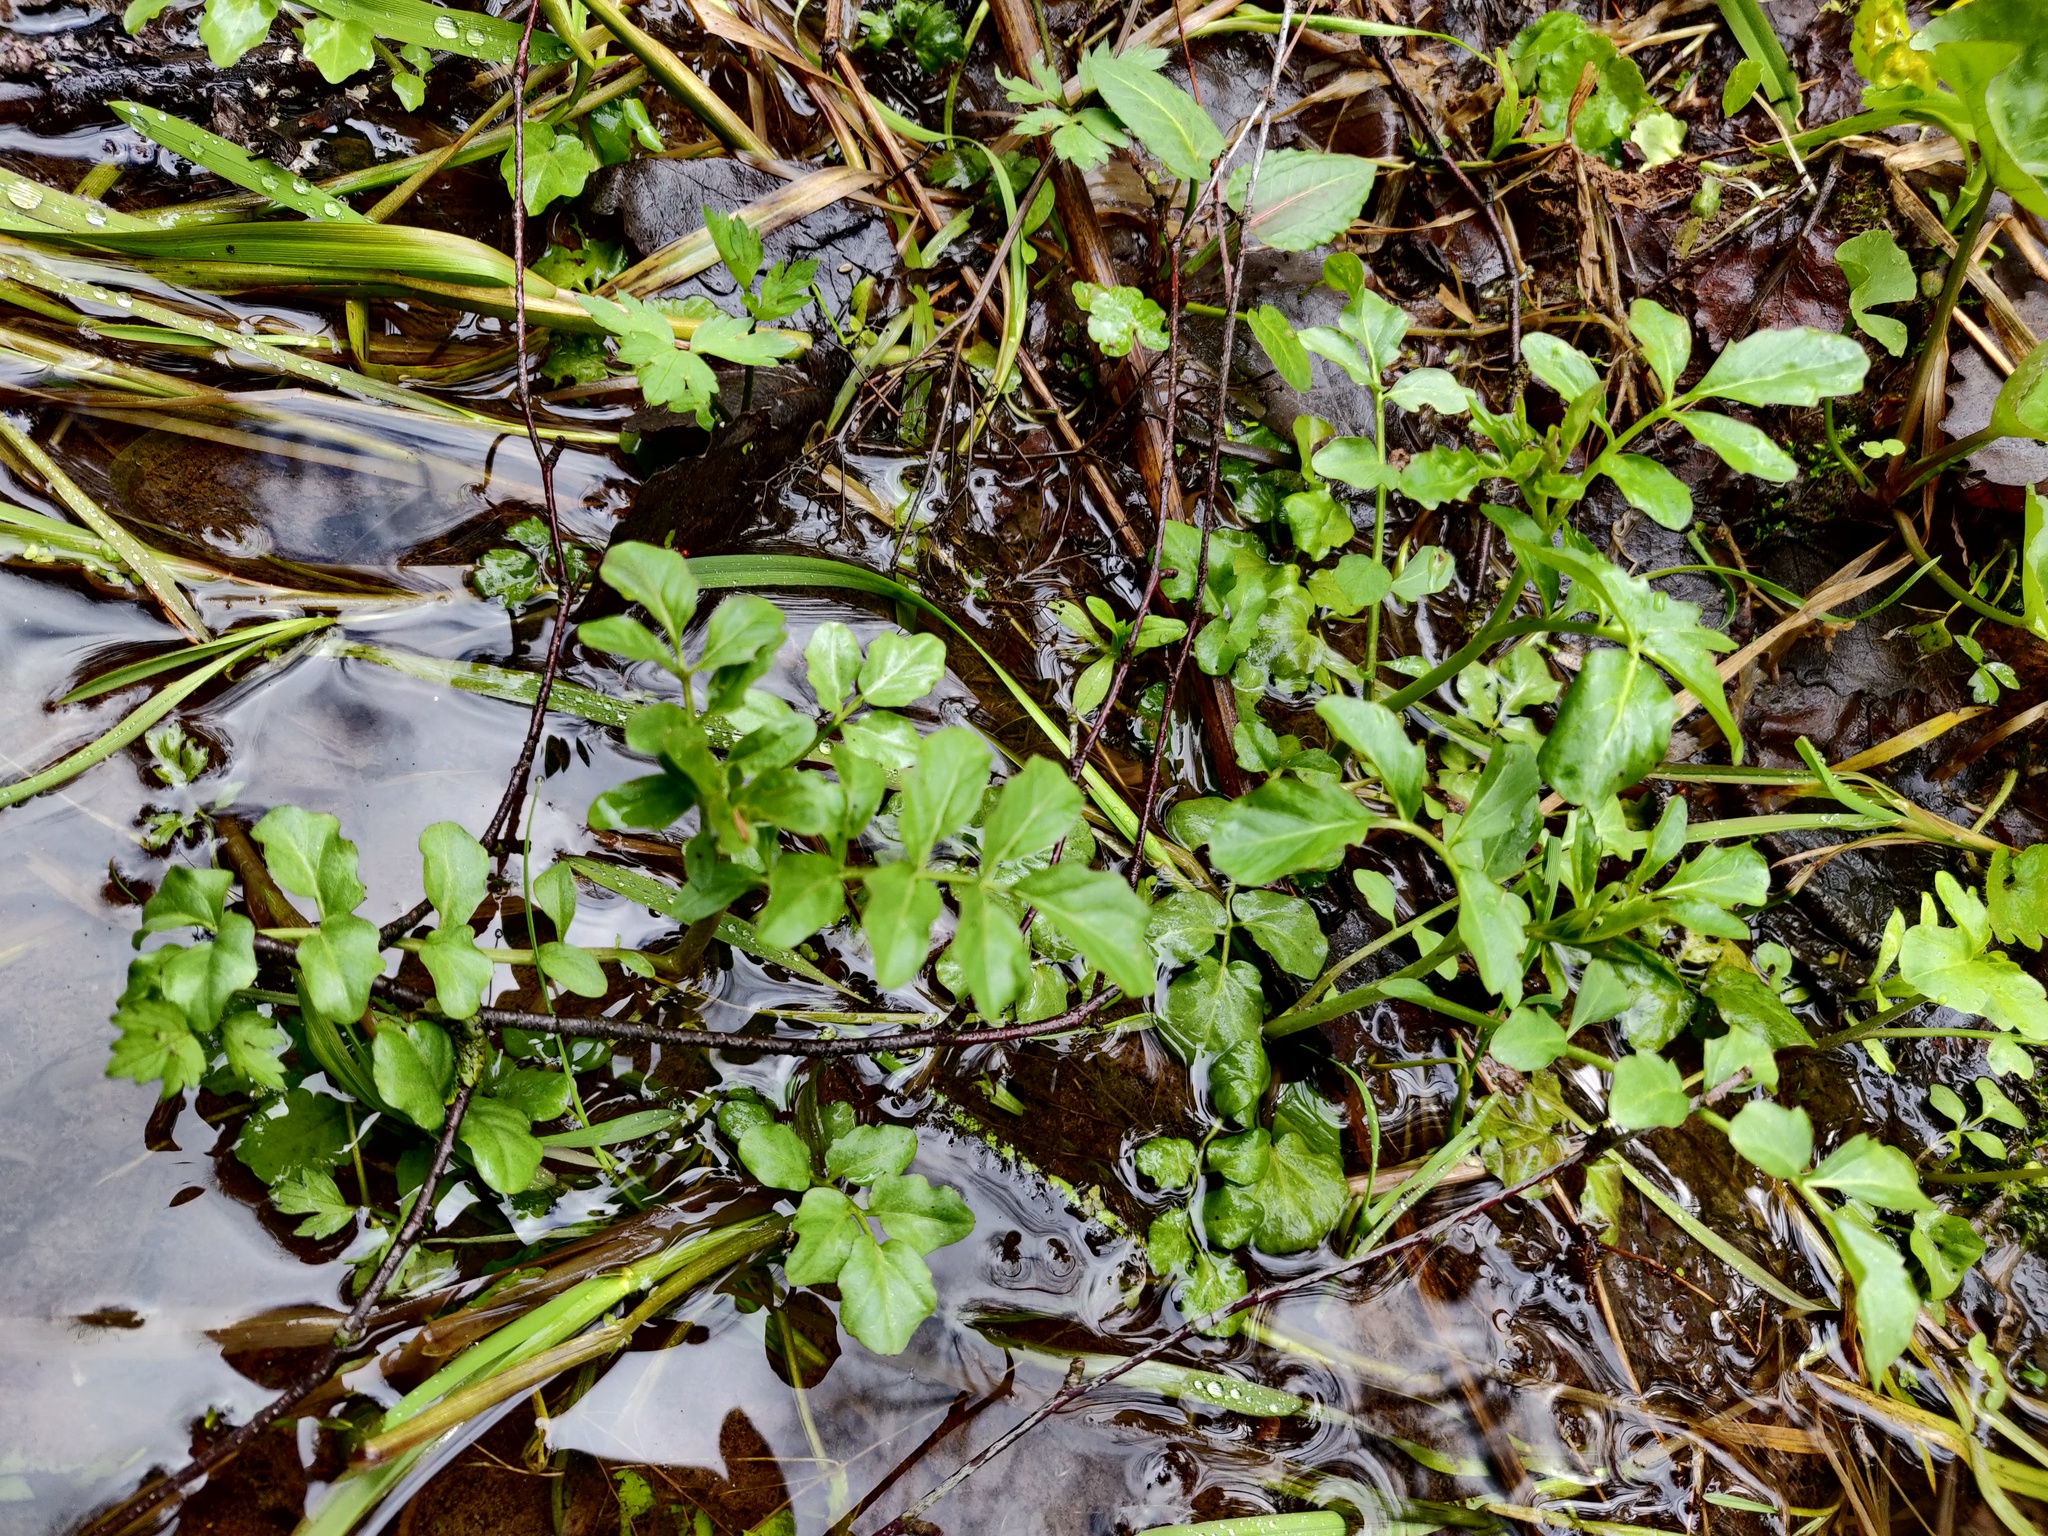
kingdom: Plantae
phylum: Tracheophyta
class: Magnoliopsida
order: Brassicales
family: Brassicaceae
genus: Cardamine
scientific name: Cardamine amara
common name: Large bitter-cress
